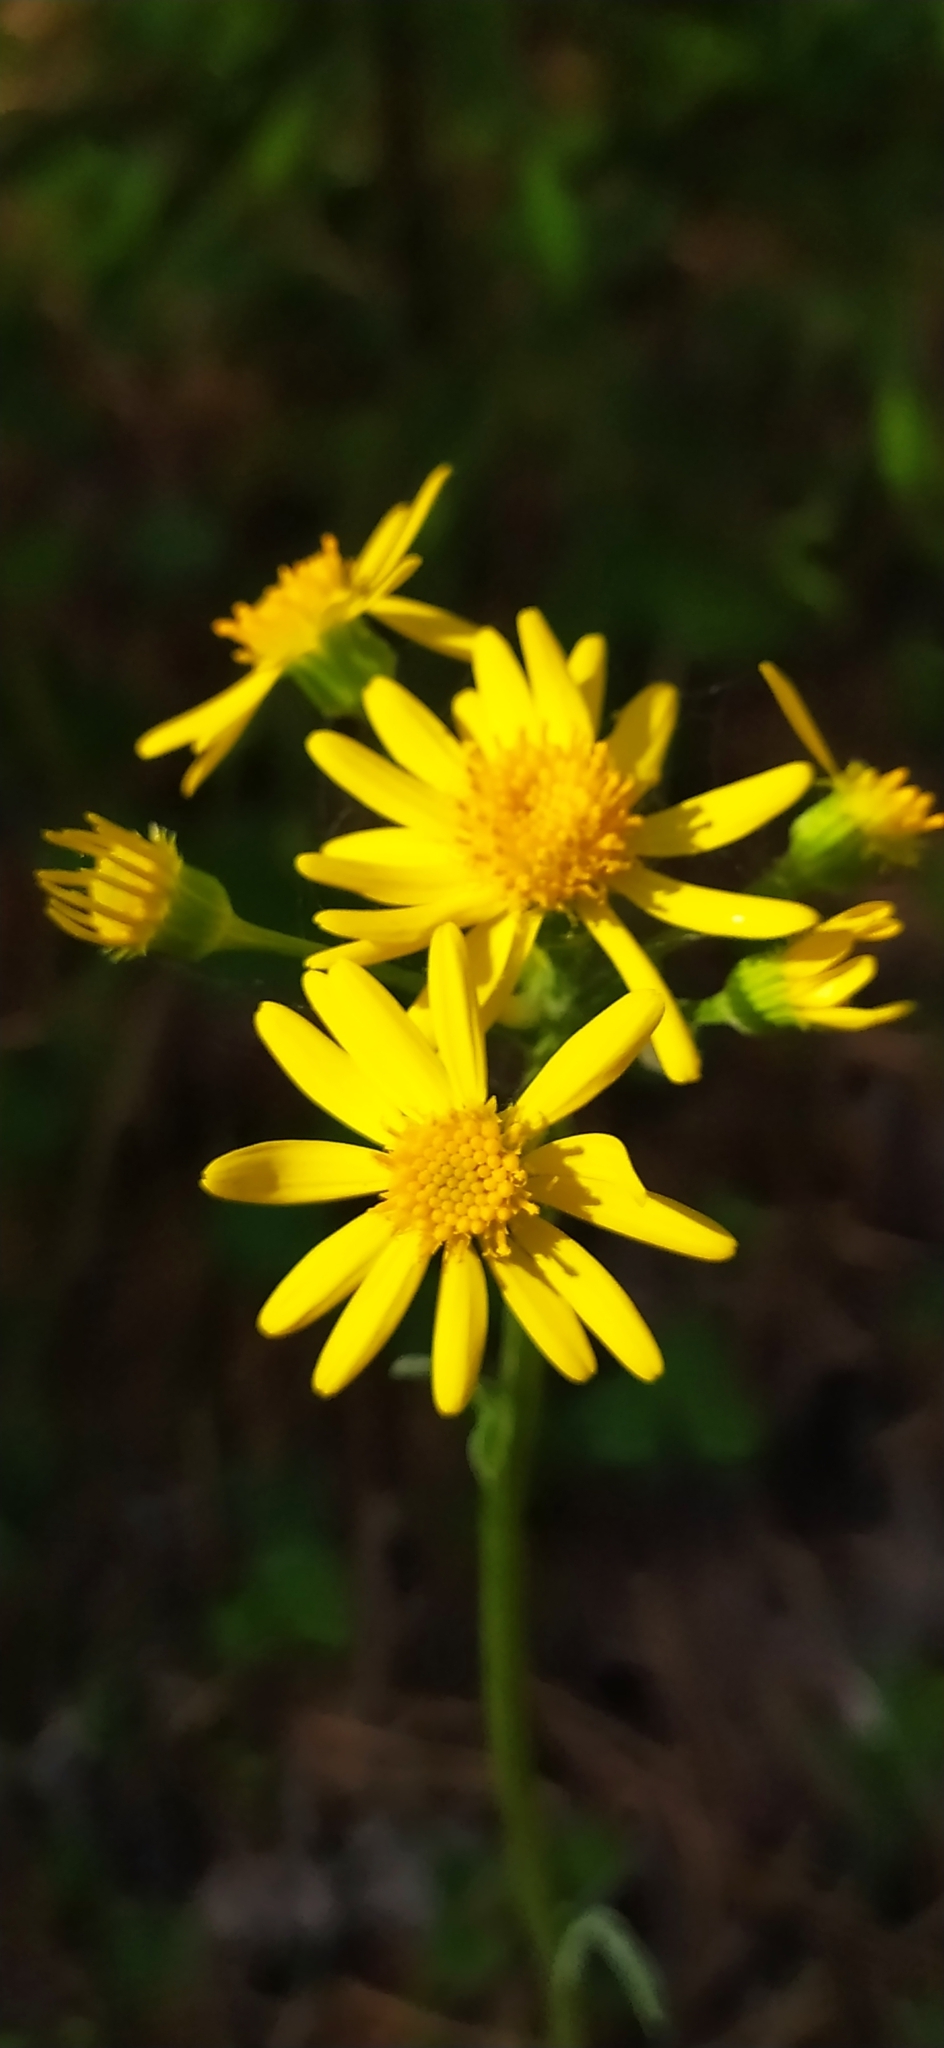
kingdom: Plantae
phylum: Tracheophyta
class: Magnoliopsida
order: Asterales
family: Asteraceae
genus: Tephroseris
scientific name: Tephroseris integrifolia
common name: Field fleawort
